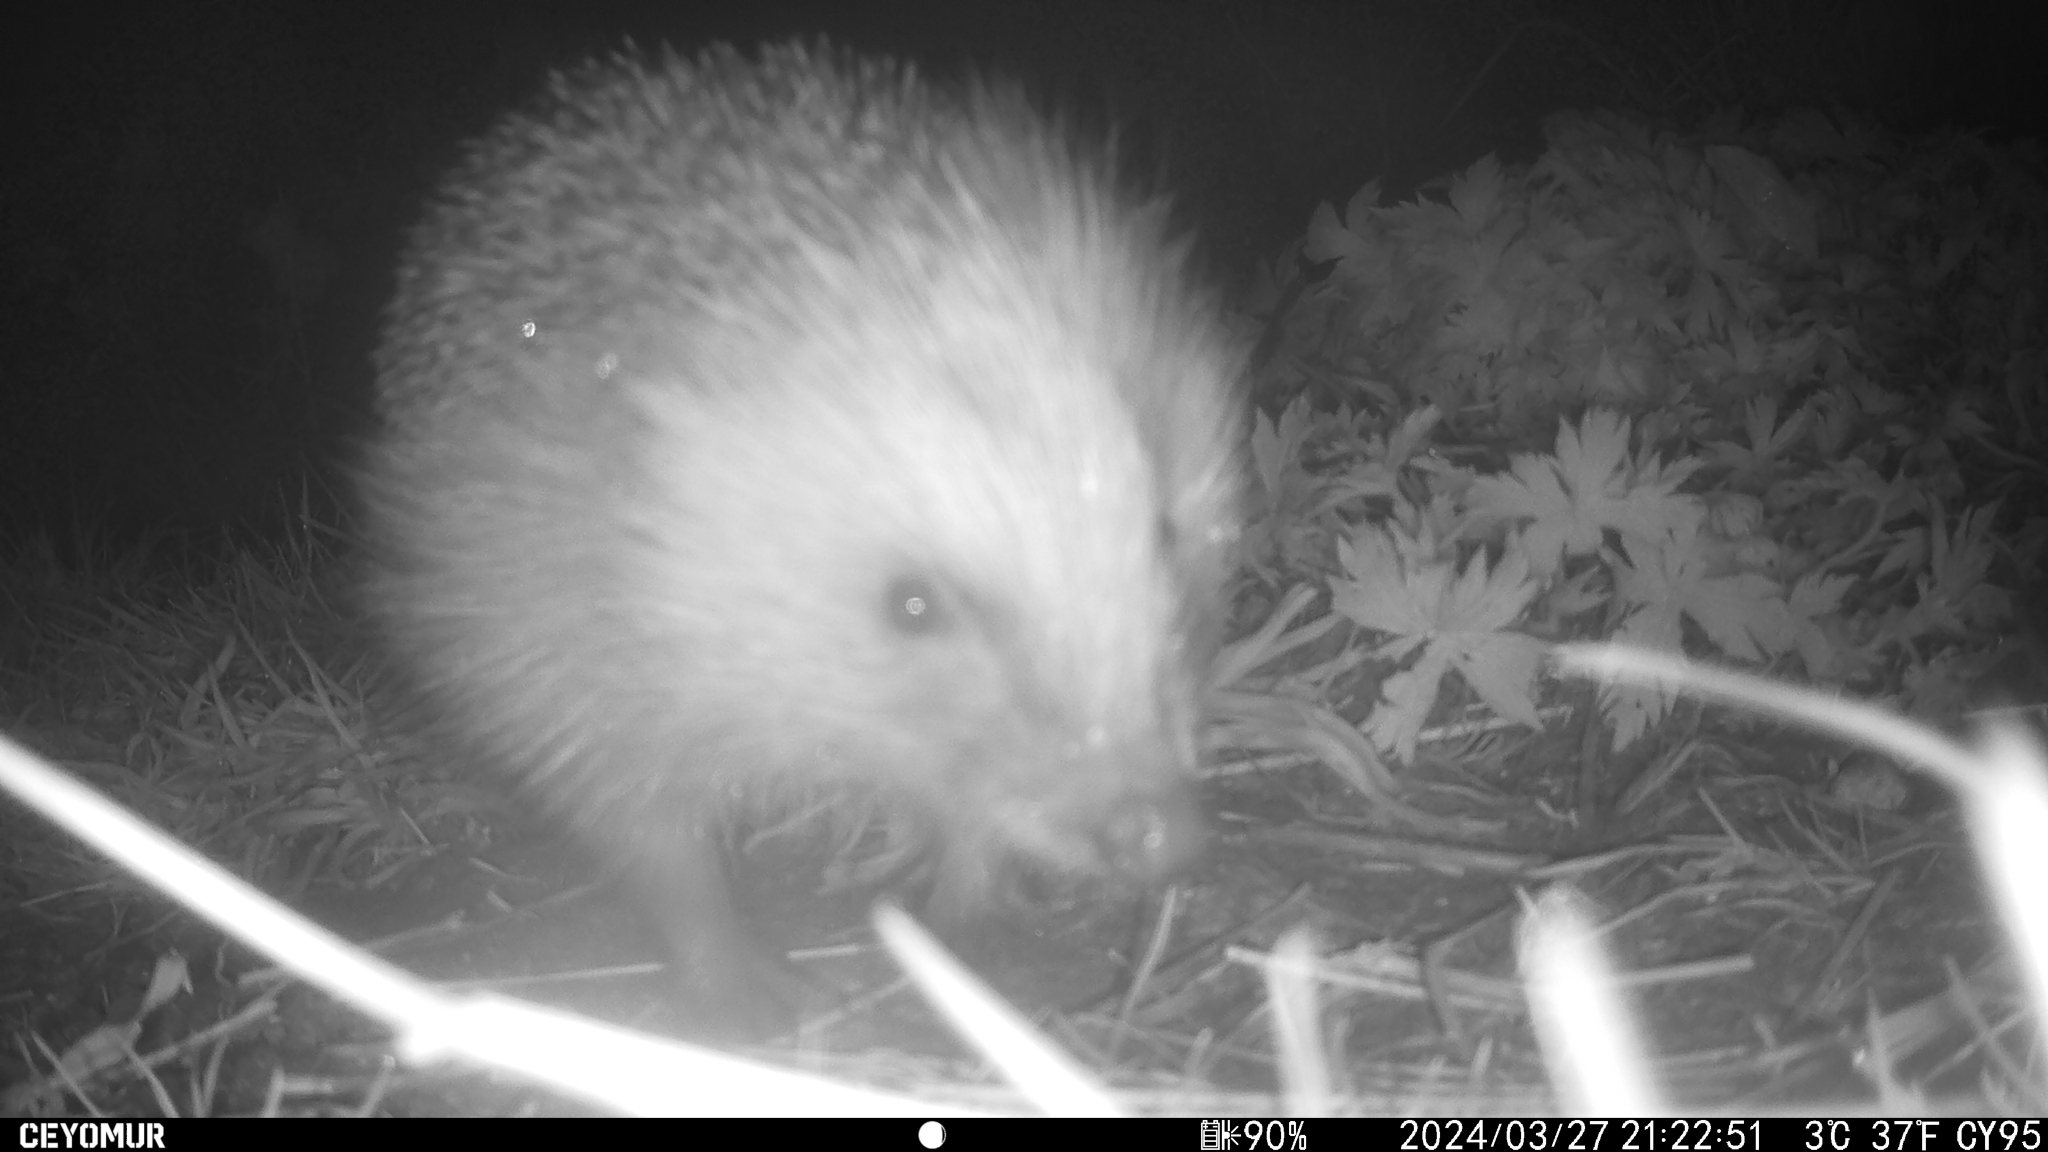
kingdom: Animalia
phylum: Chordata
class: Mammalia
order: Erinaceomorpha
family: Erinaceidae
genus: Erinaceus
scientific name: Erinaceus europaeus
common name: West european hedgehog
